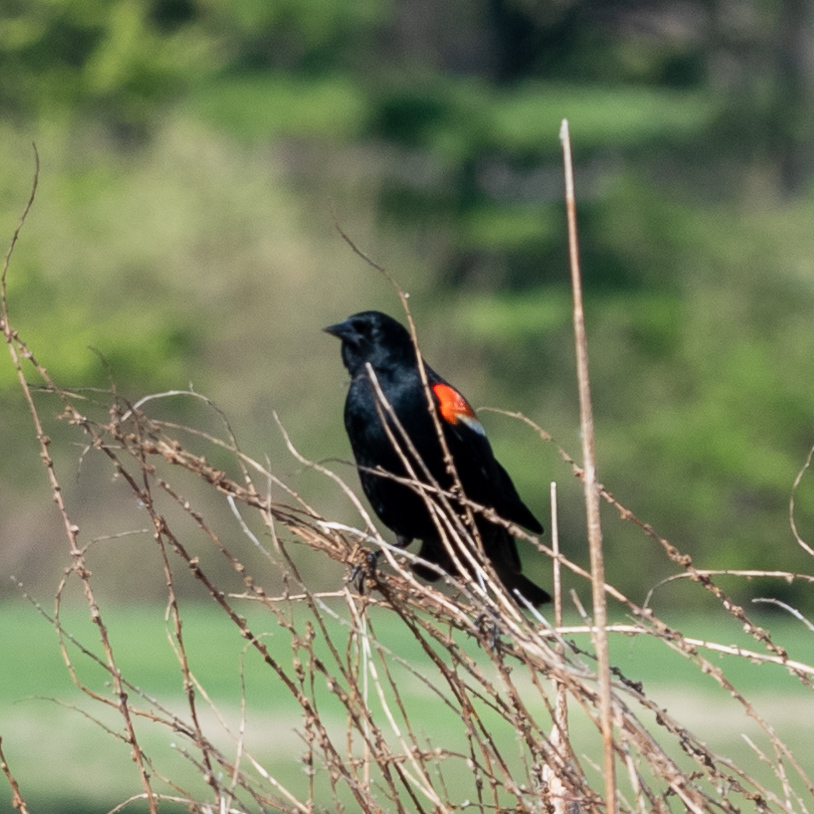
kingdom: Animalia
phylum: Chordata
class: Aves
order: Passeriformes
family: Icteridae
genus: Agelaius
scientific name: Agelaius phoeniceus
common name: Red-winged blackbird
